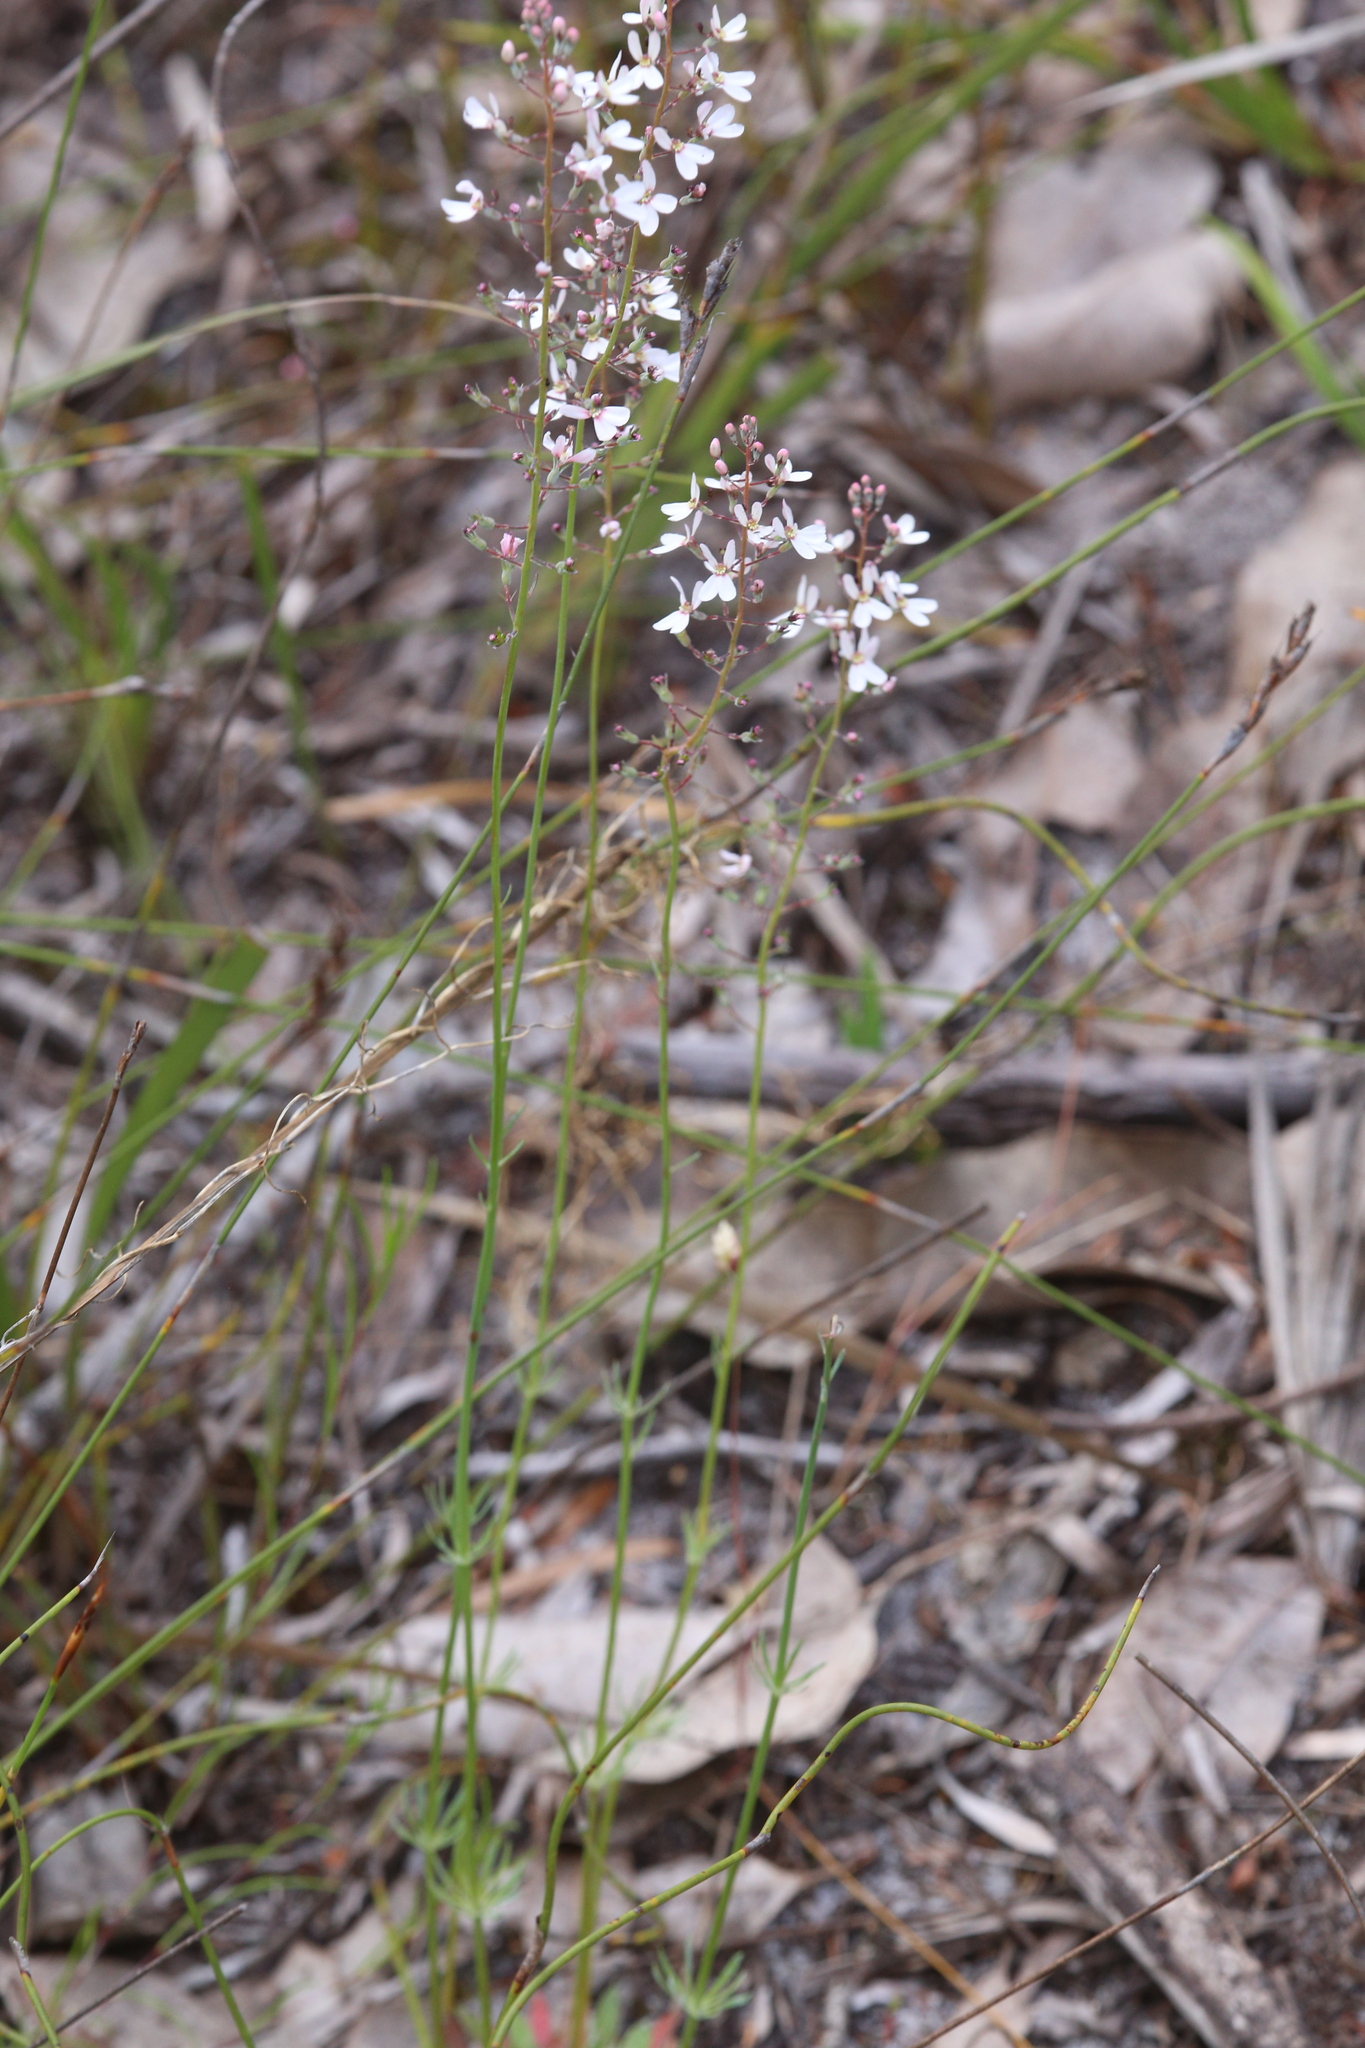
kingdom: Plantae
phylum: Tracheophyta
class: Magnoliopsida
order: Asterales
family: Stylidiaceae
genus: Stylidium
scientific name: Stylidium neurophyllum
